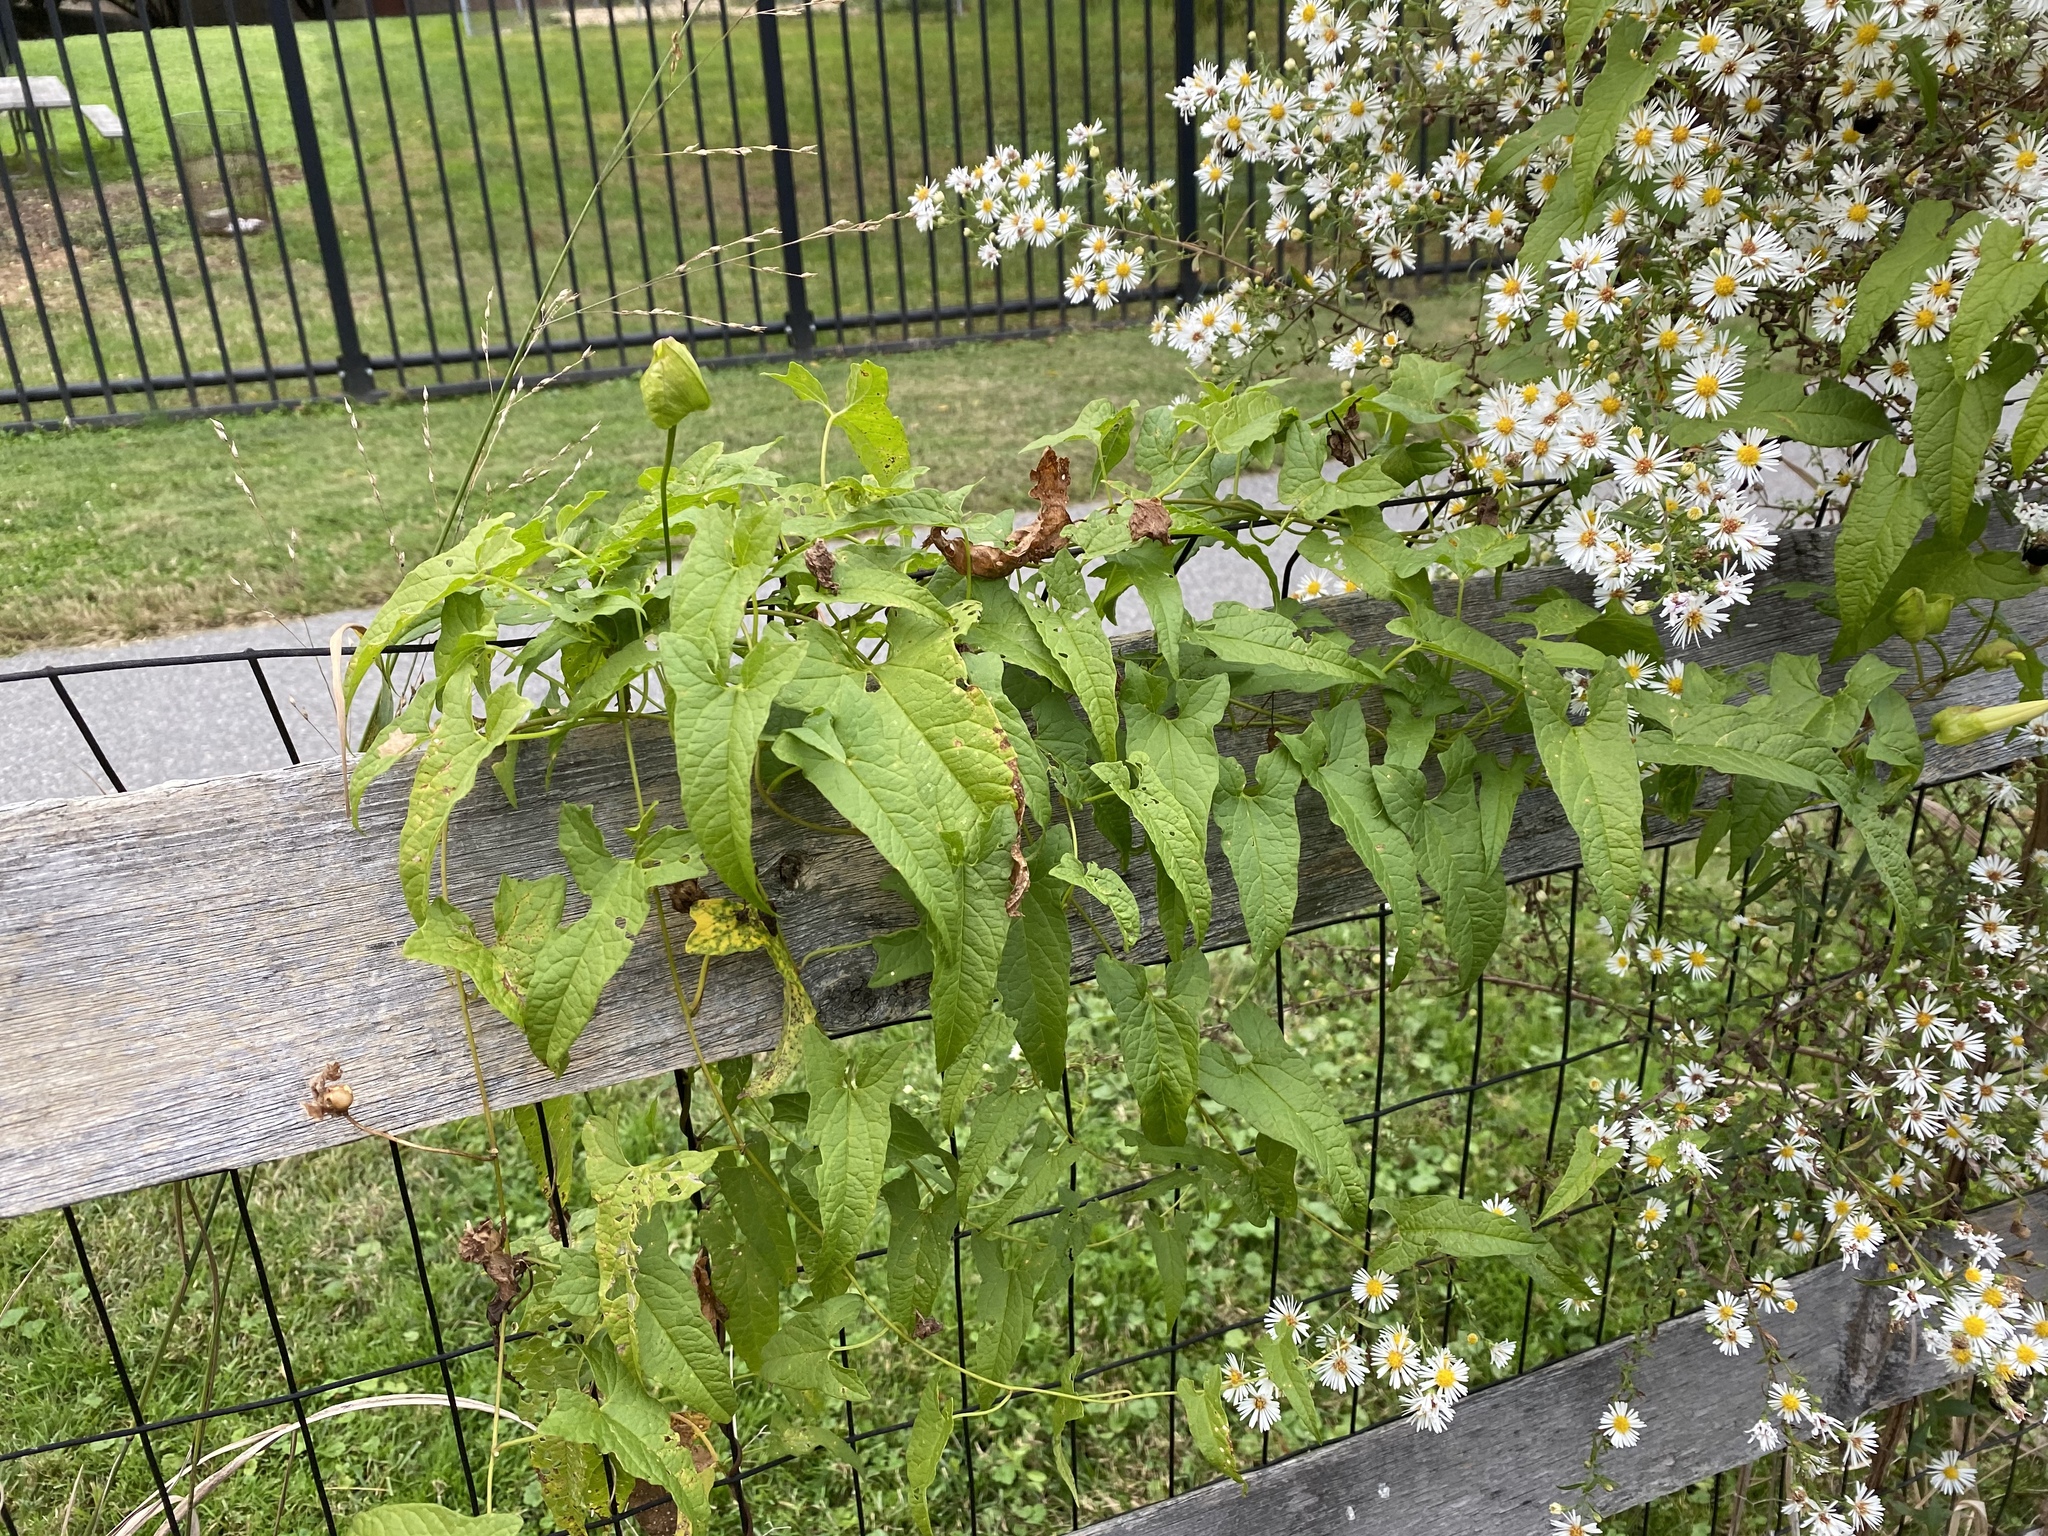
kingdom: Plantae
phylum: Tracheophyta
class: Magnoliopsida
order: Solanales
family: Convolvulaceae
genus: Calystegia
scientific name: Calystegia silvatica
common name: Large bindweed
